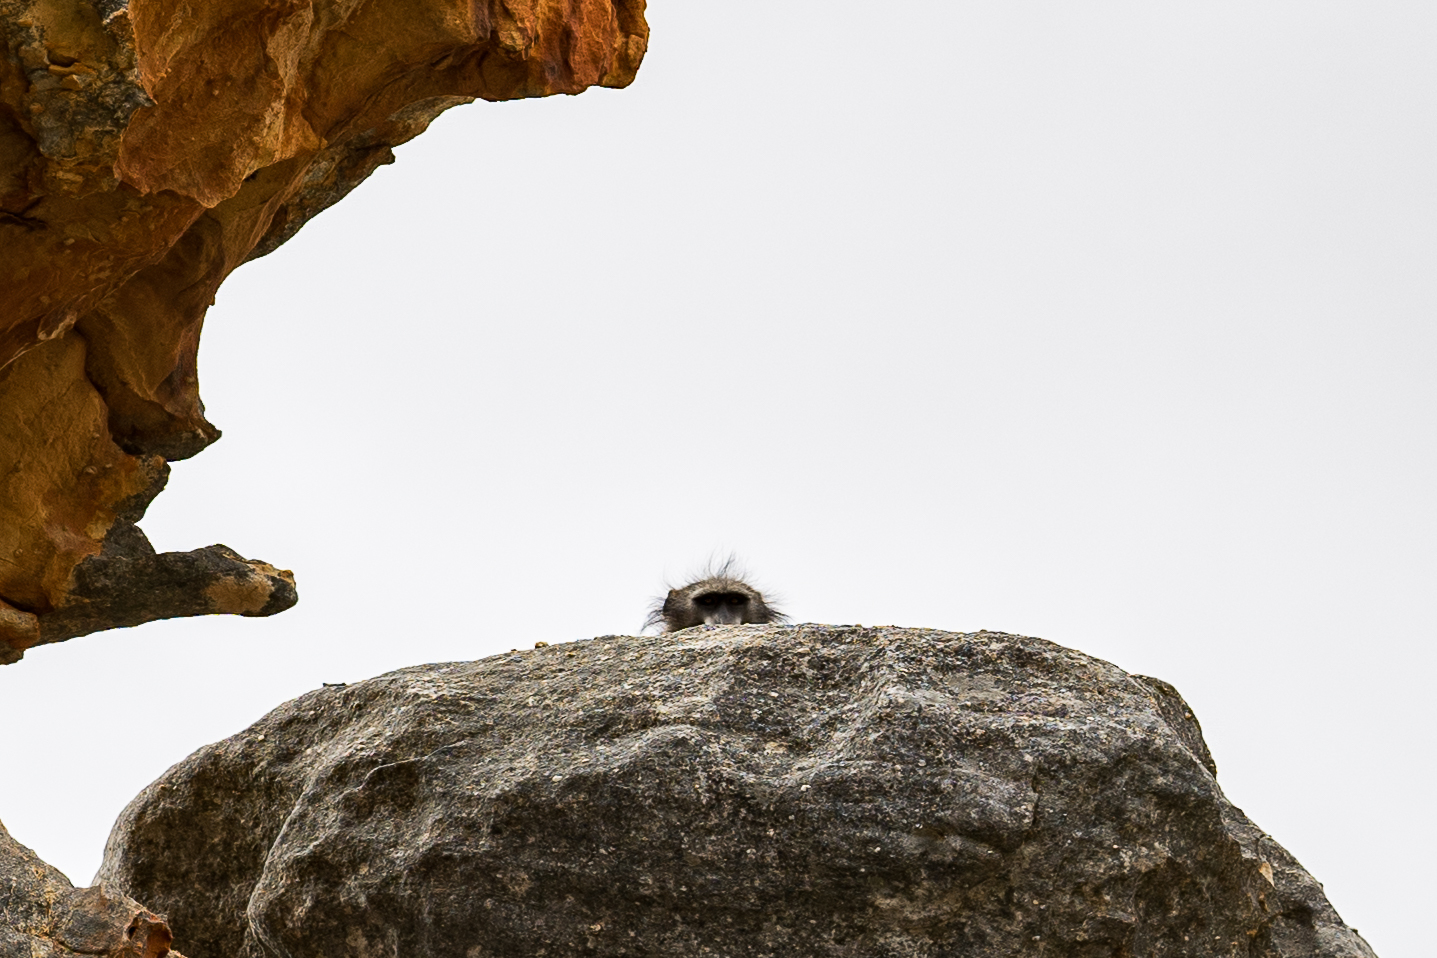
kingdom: Animalia
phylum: Chordata
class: Mammalia
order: Primates
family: Cercopithecidae
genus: Papio
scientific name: Papio ursinus
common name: Chacma baboon
